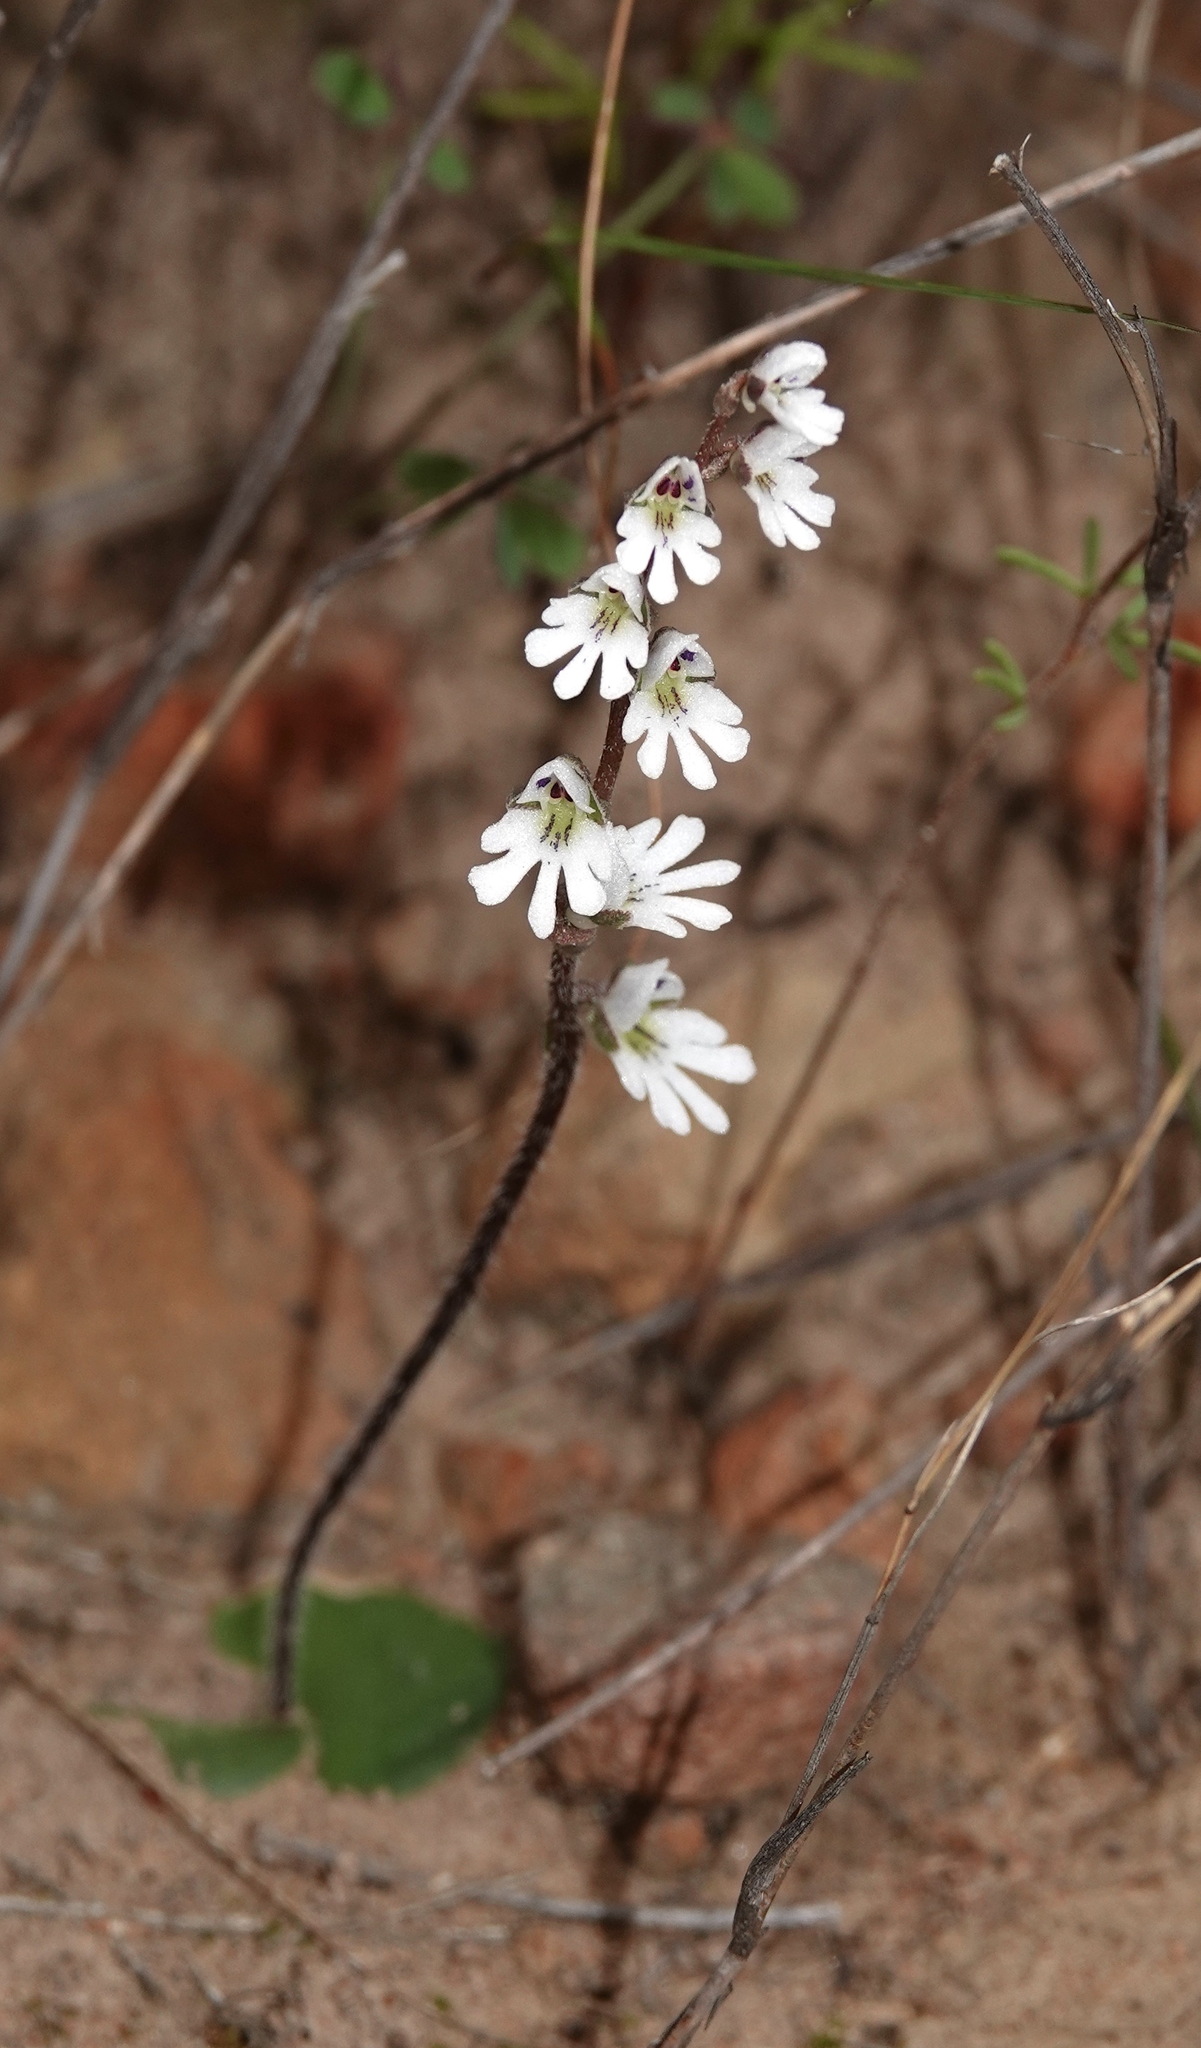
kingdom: Plantae
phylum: Tracheophyta
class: Liliopsida
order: Asparagales
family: Orchidaceae
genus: Holothrix
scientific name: Holothrix aspera
